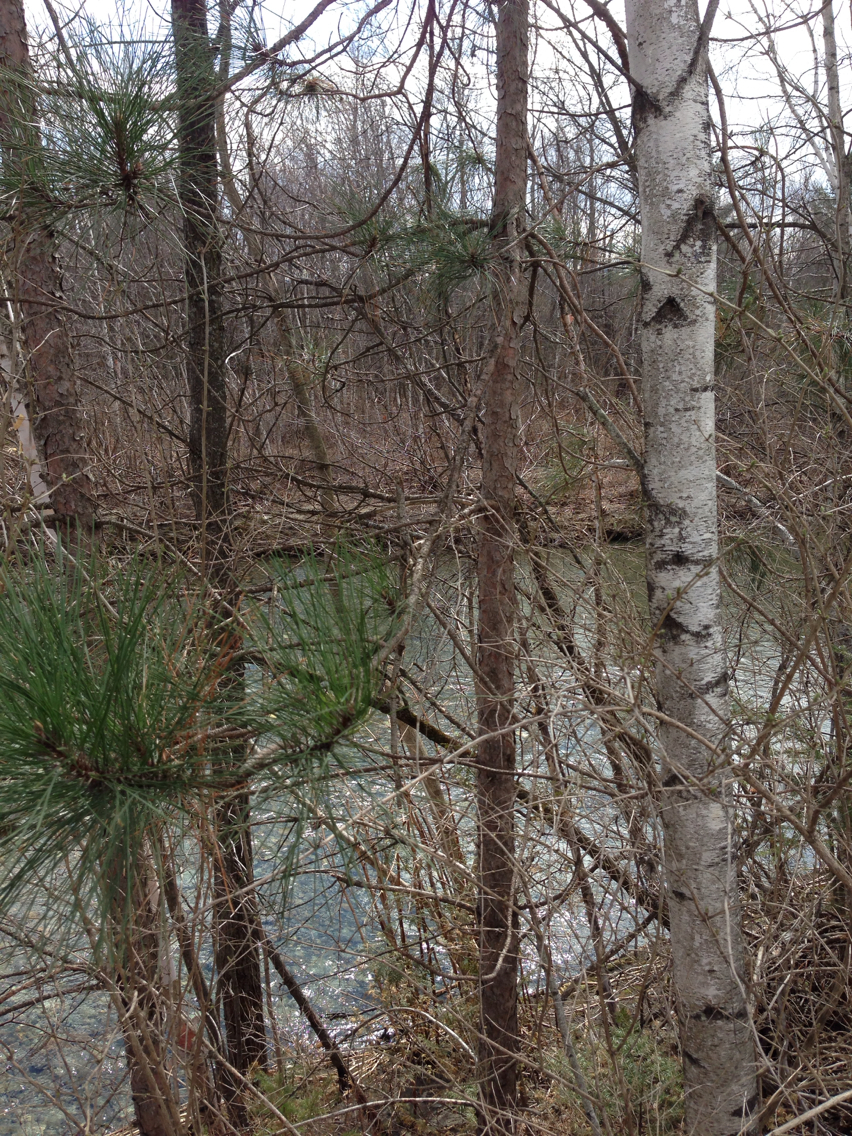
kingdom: Plantae
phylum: Tracheophyta
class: Pinopsida
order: Pinales
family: Pinaceae
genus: Pinus
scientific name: Pinus resinosa
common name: Norway pine
